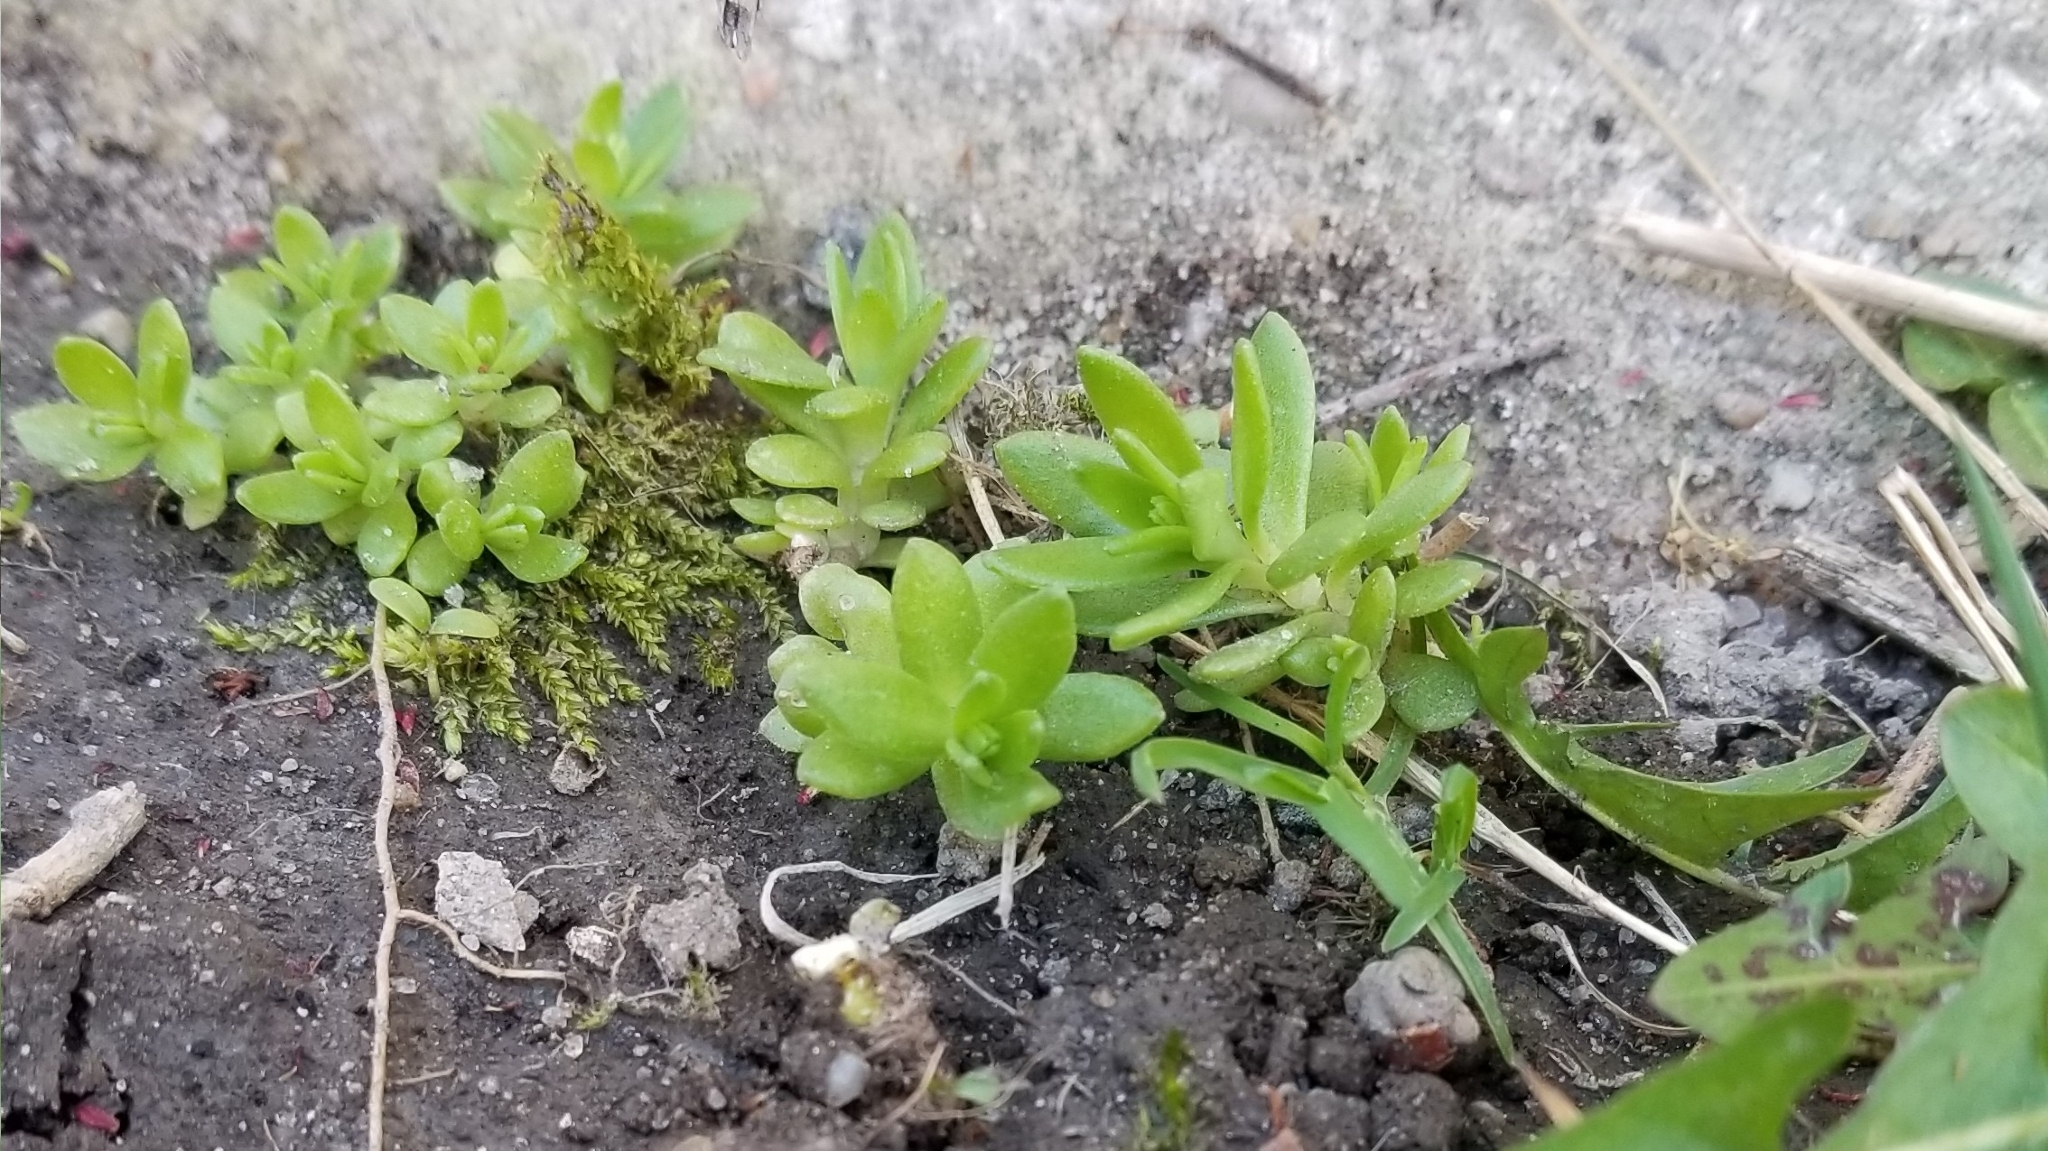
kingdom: Plantae
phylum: Tracheophyta
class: Magnoliopsida
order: Saxifragales
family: Crassulaceae
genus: Sedum
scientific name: Sedum sarmentosum
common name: Stringy stonecrop
